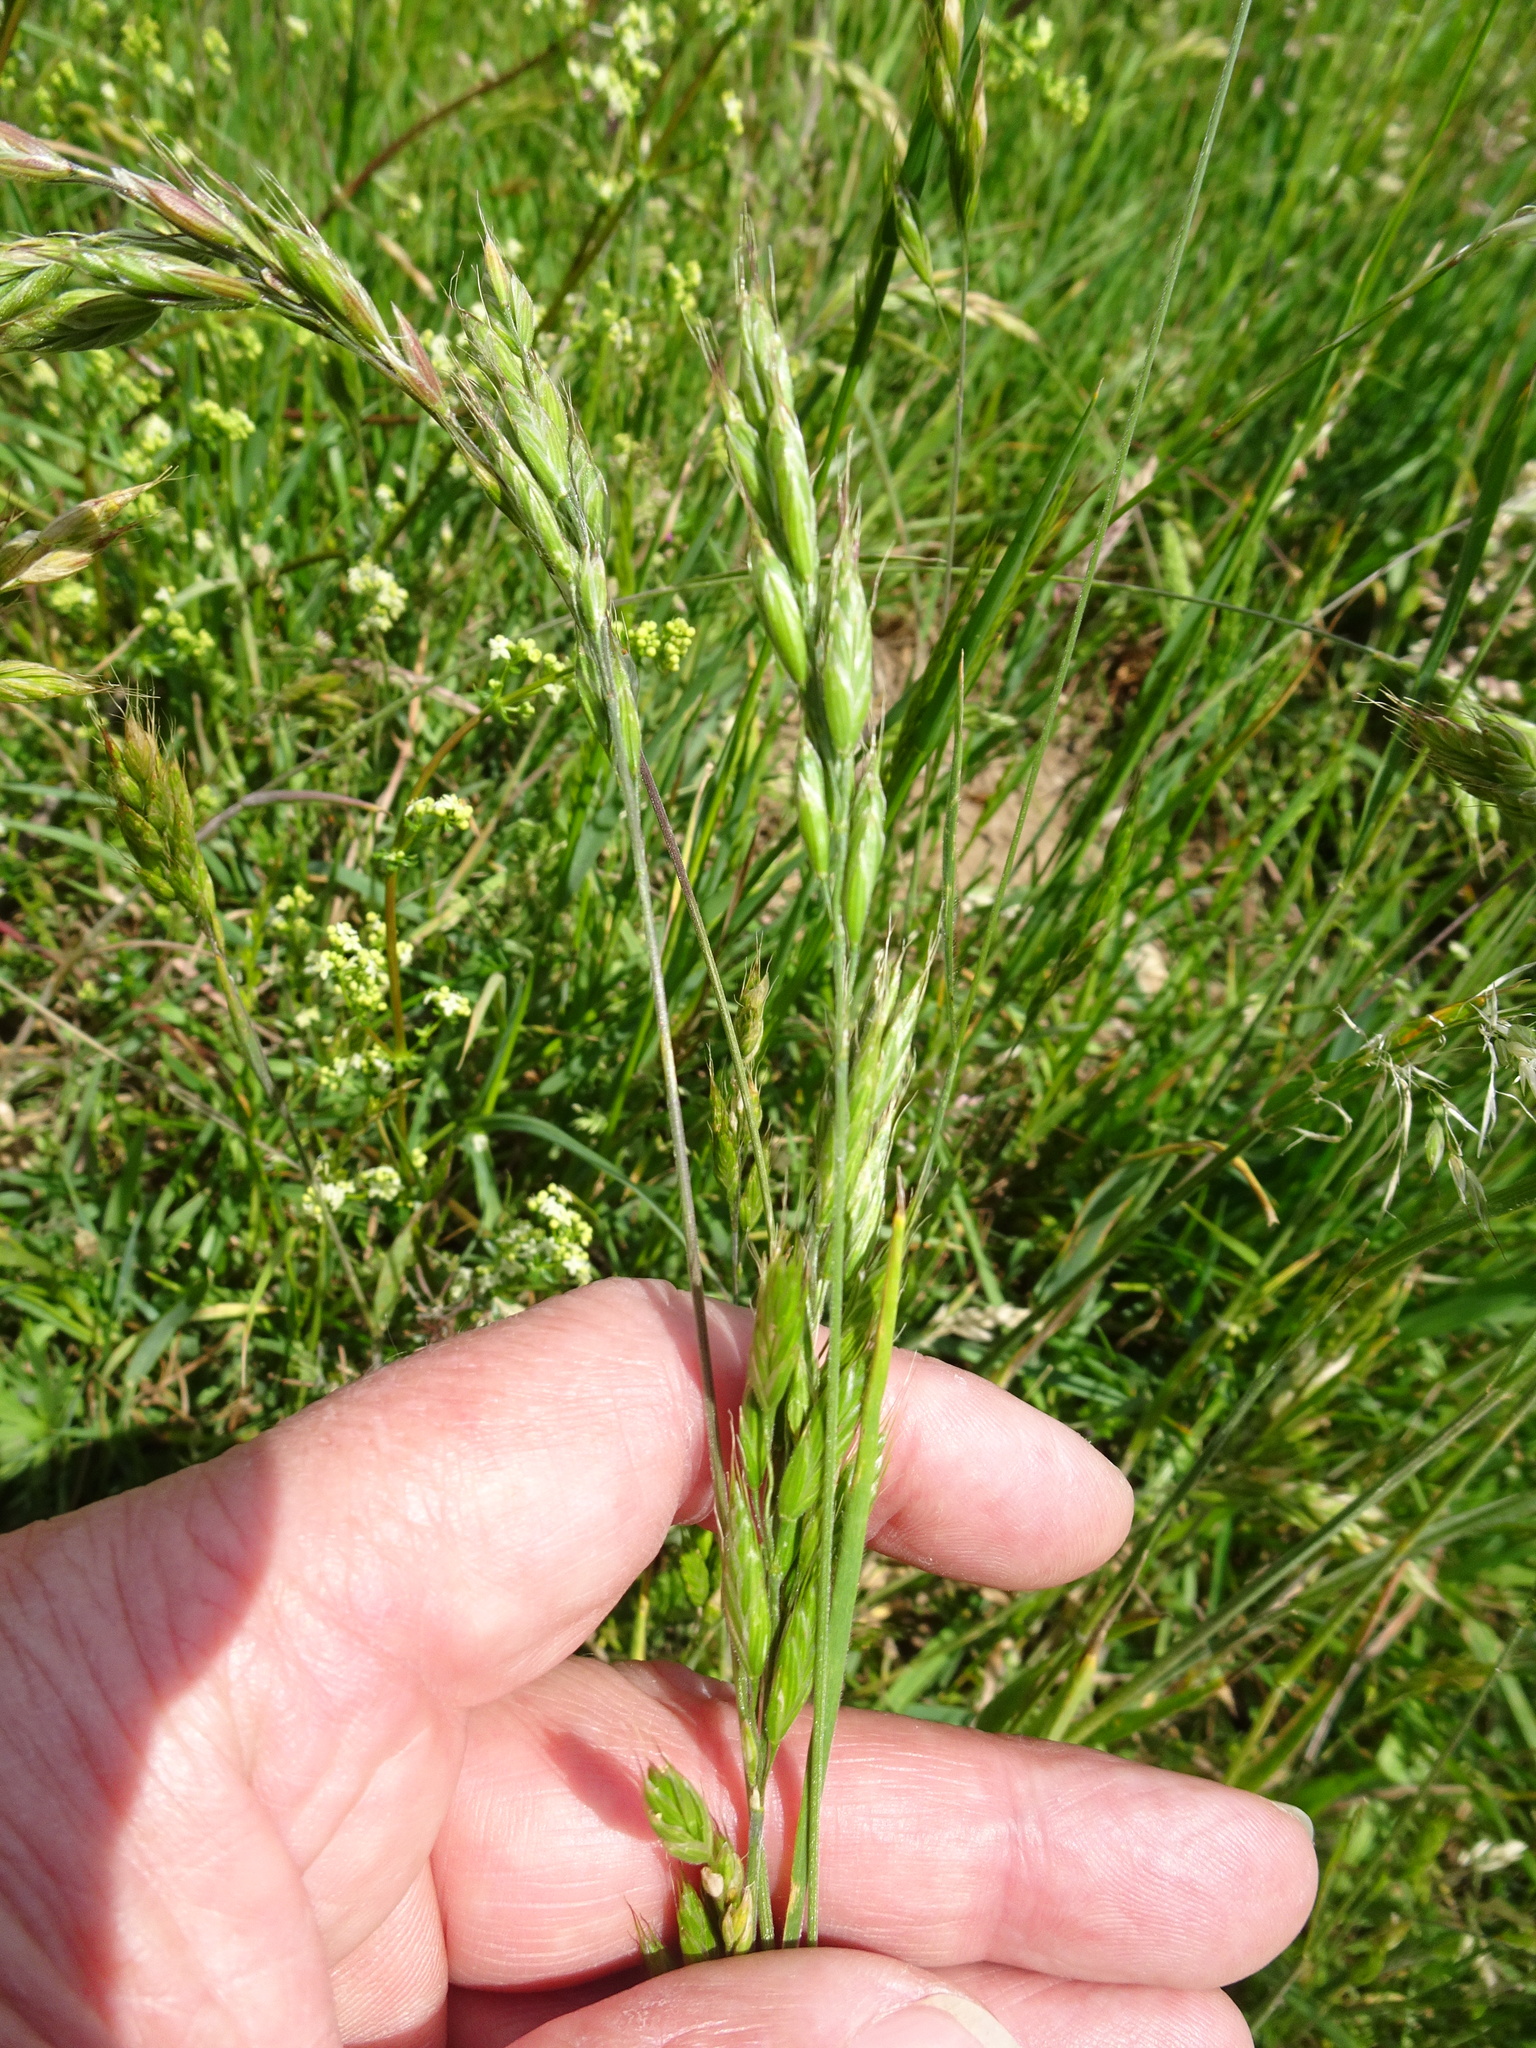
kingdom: Plantae
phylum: Tracheophyta
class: Liliopsida
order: Poales
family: Poaceae
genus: Bromus
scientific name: Bromus hordeaceus
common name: Soft brome
